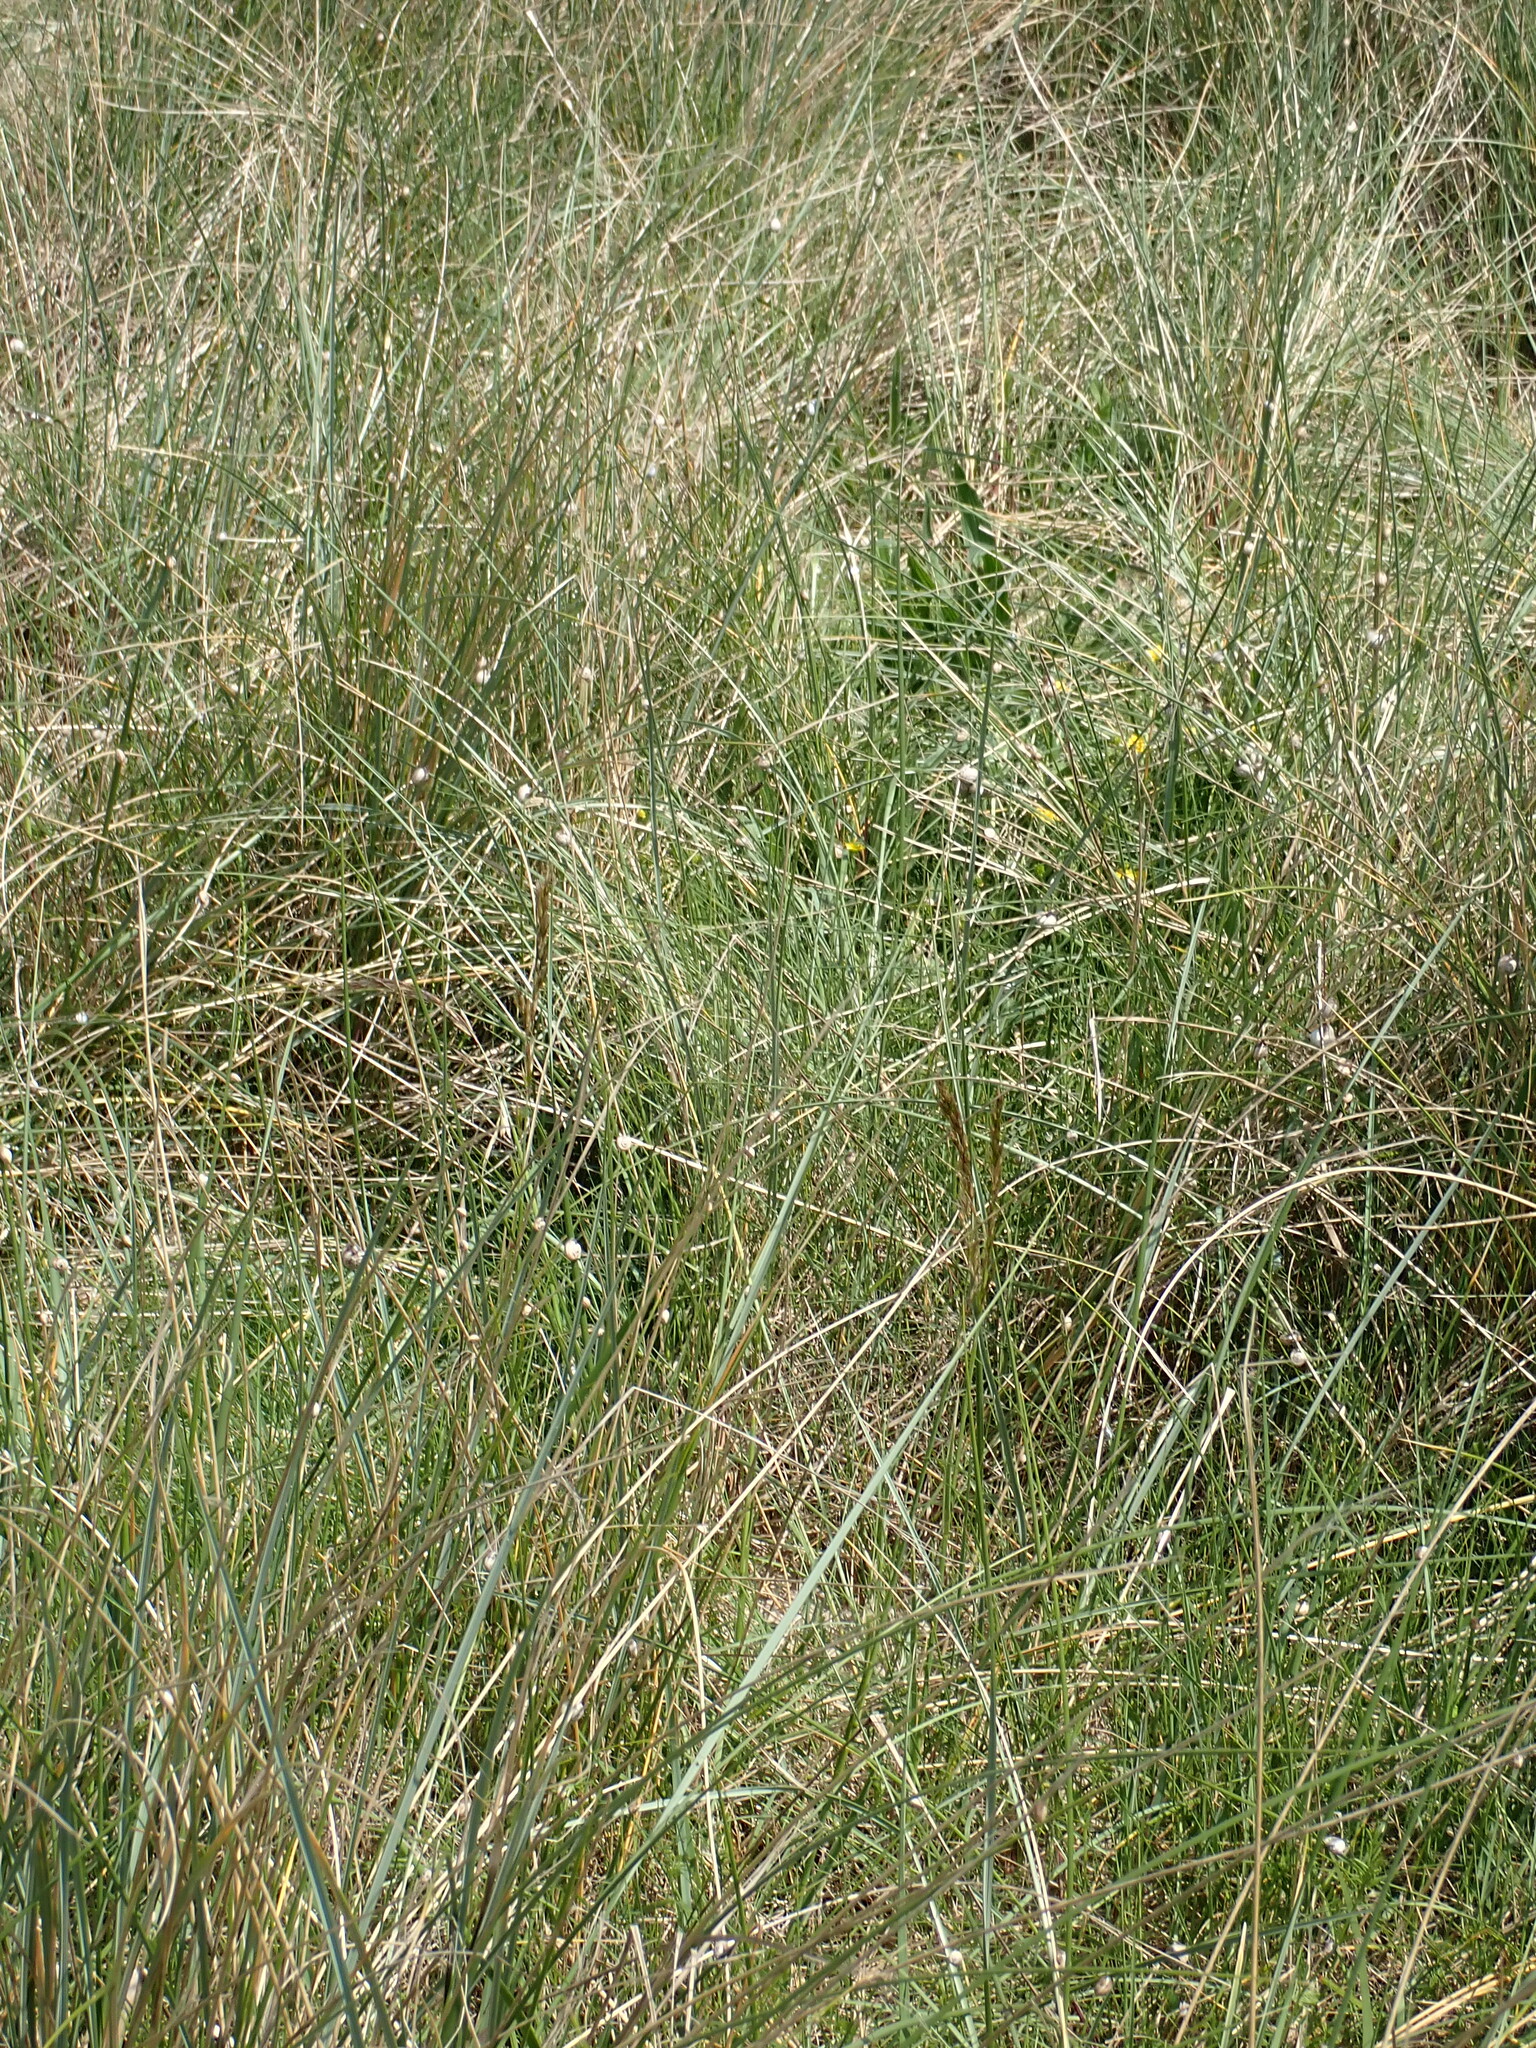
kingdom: Plantae
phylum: Tracheophyta
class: Liliopsida
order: Poales
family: Poaceae
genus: Calamagrostis
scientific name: Calamagrostis arenaria
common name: European beachgrass
